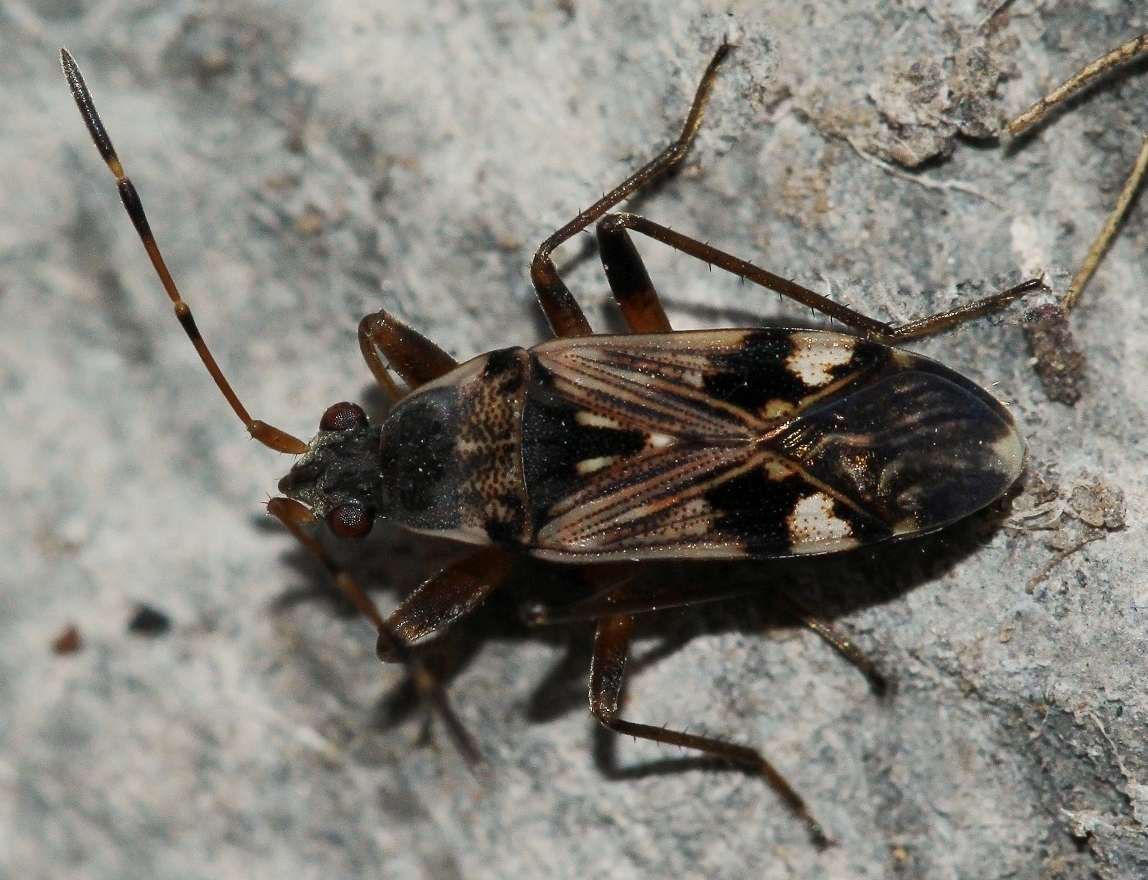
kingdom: Animalia
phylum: Arthropoda
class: Insecta
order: Hemiptera
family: Rhyparochromidae
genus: Beosus
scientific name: Beosus maritimus
